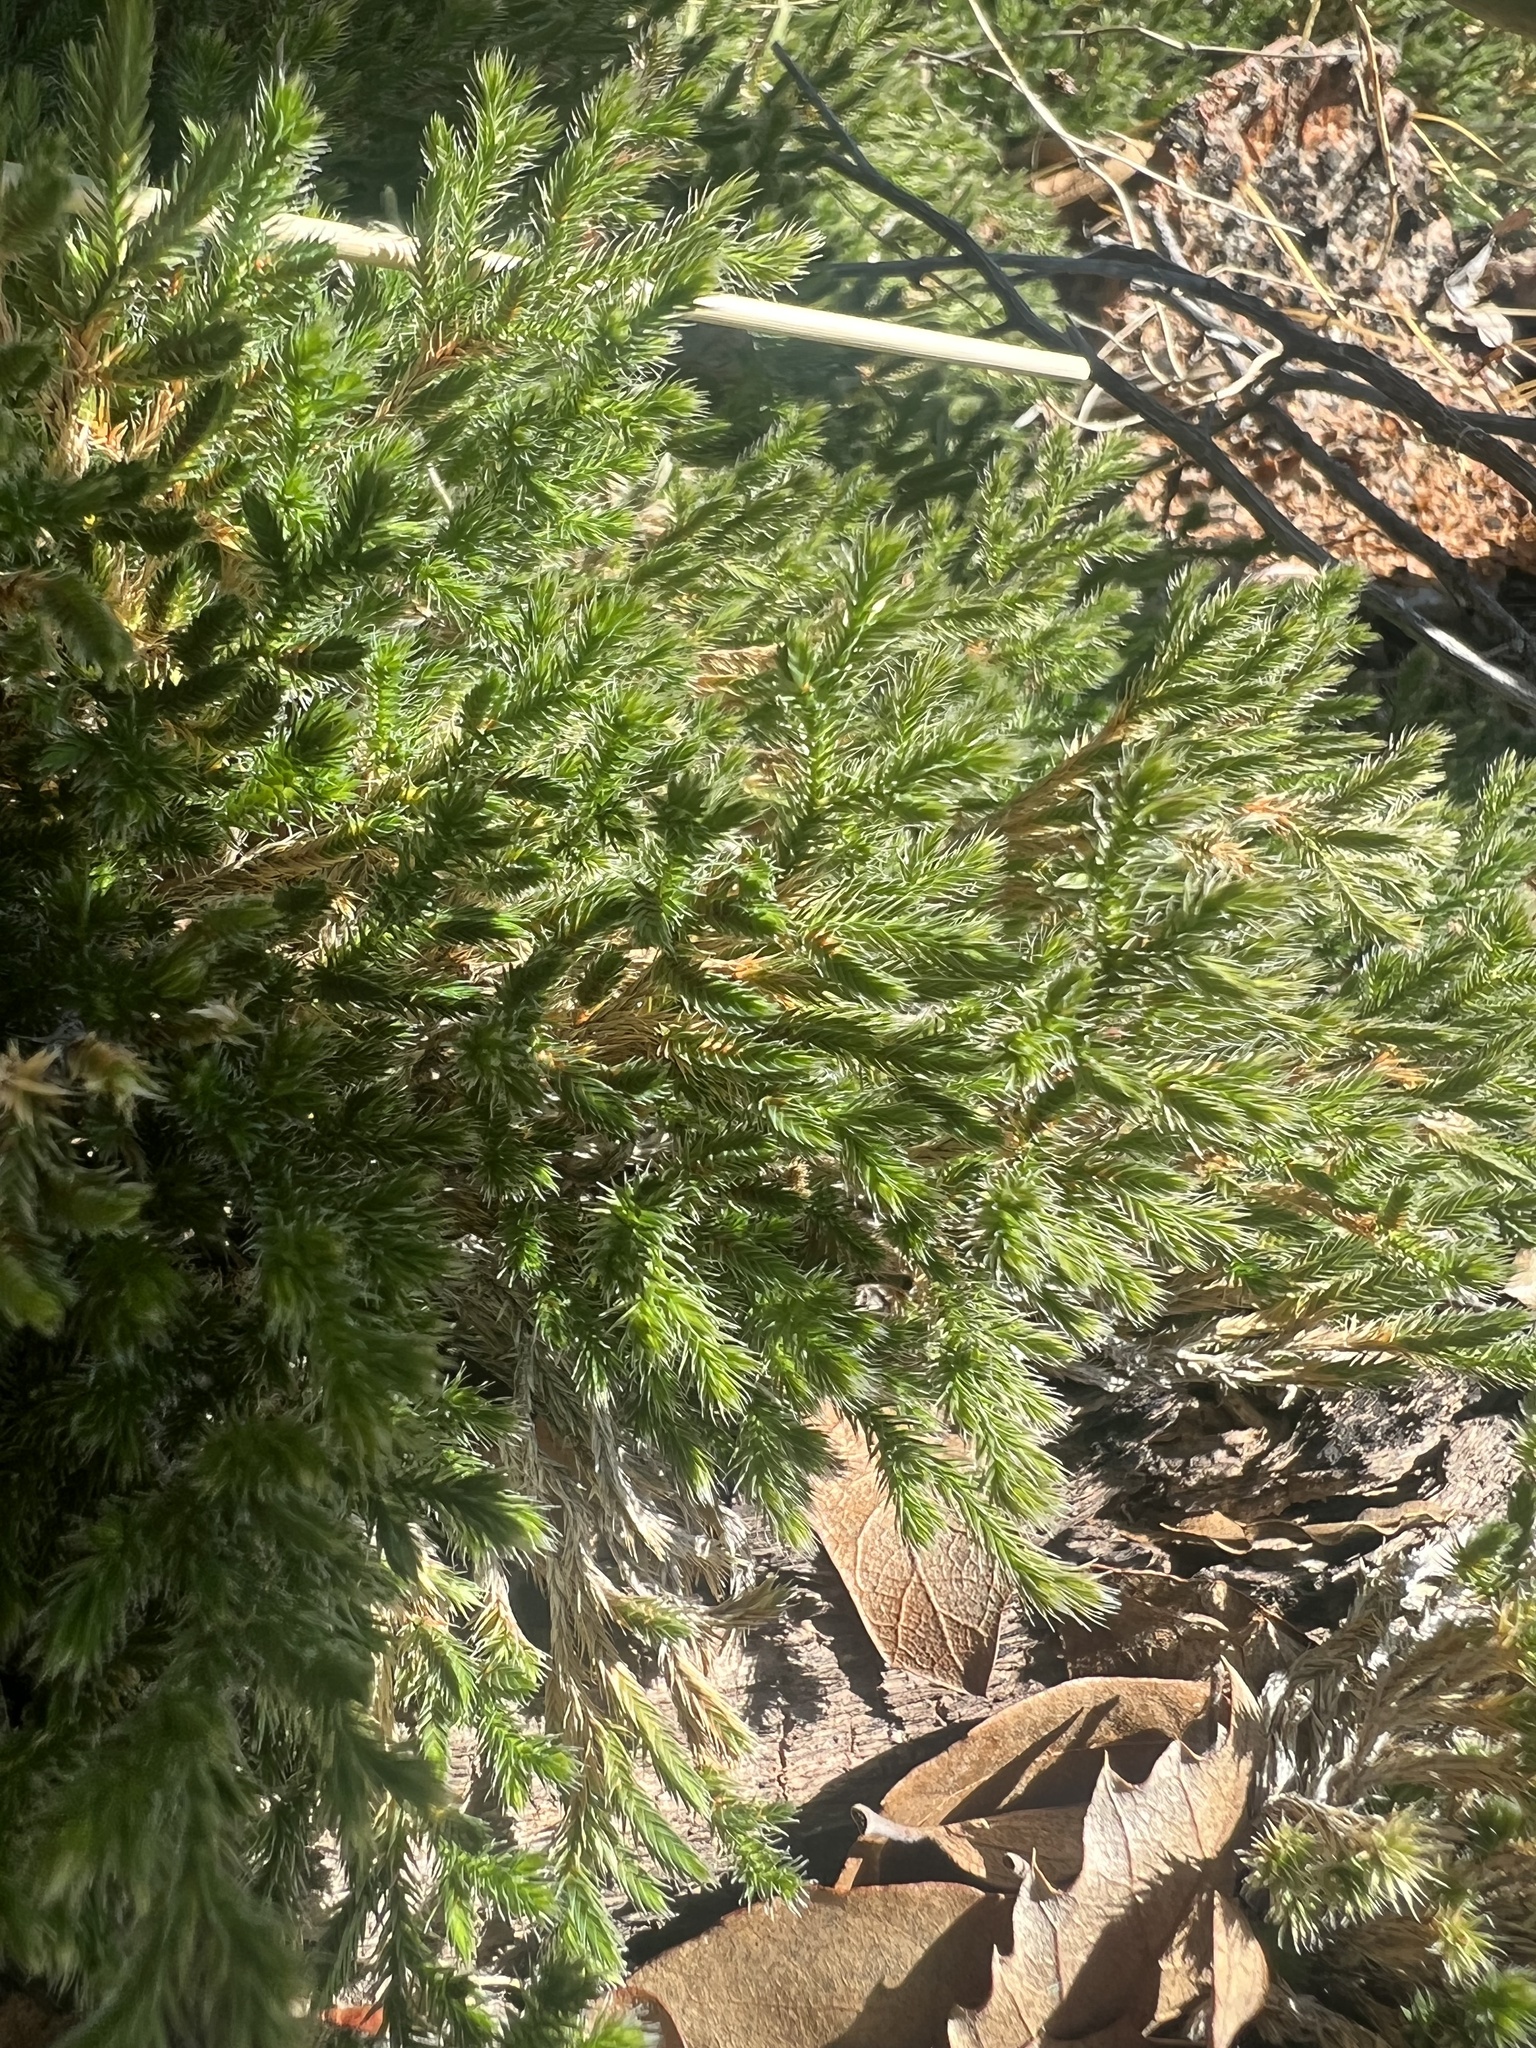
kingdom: Plantae
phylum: Tracheophyta
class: Lycopodiopsida
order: Selaginellales
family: Selaginellaceae
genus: Selaginella
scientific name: Selaginella rupincola
